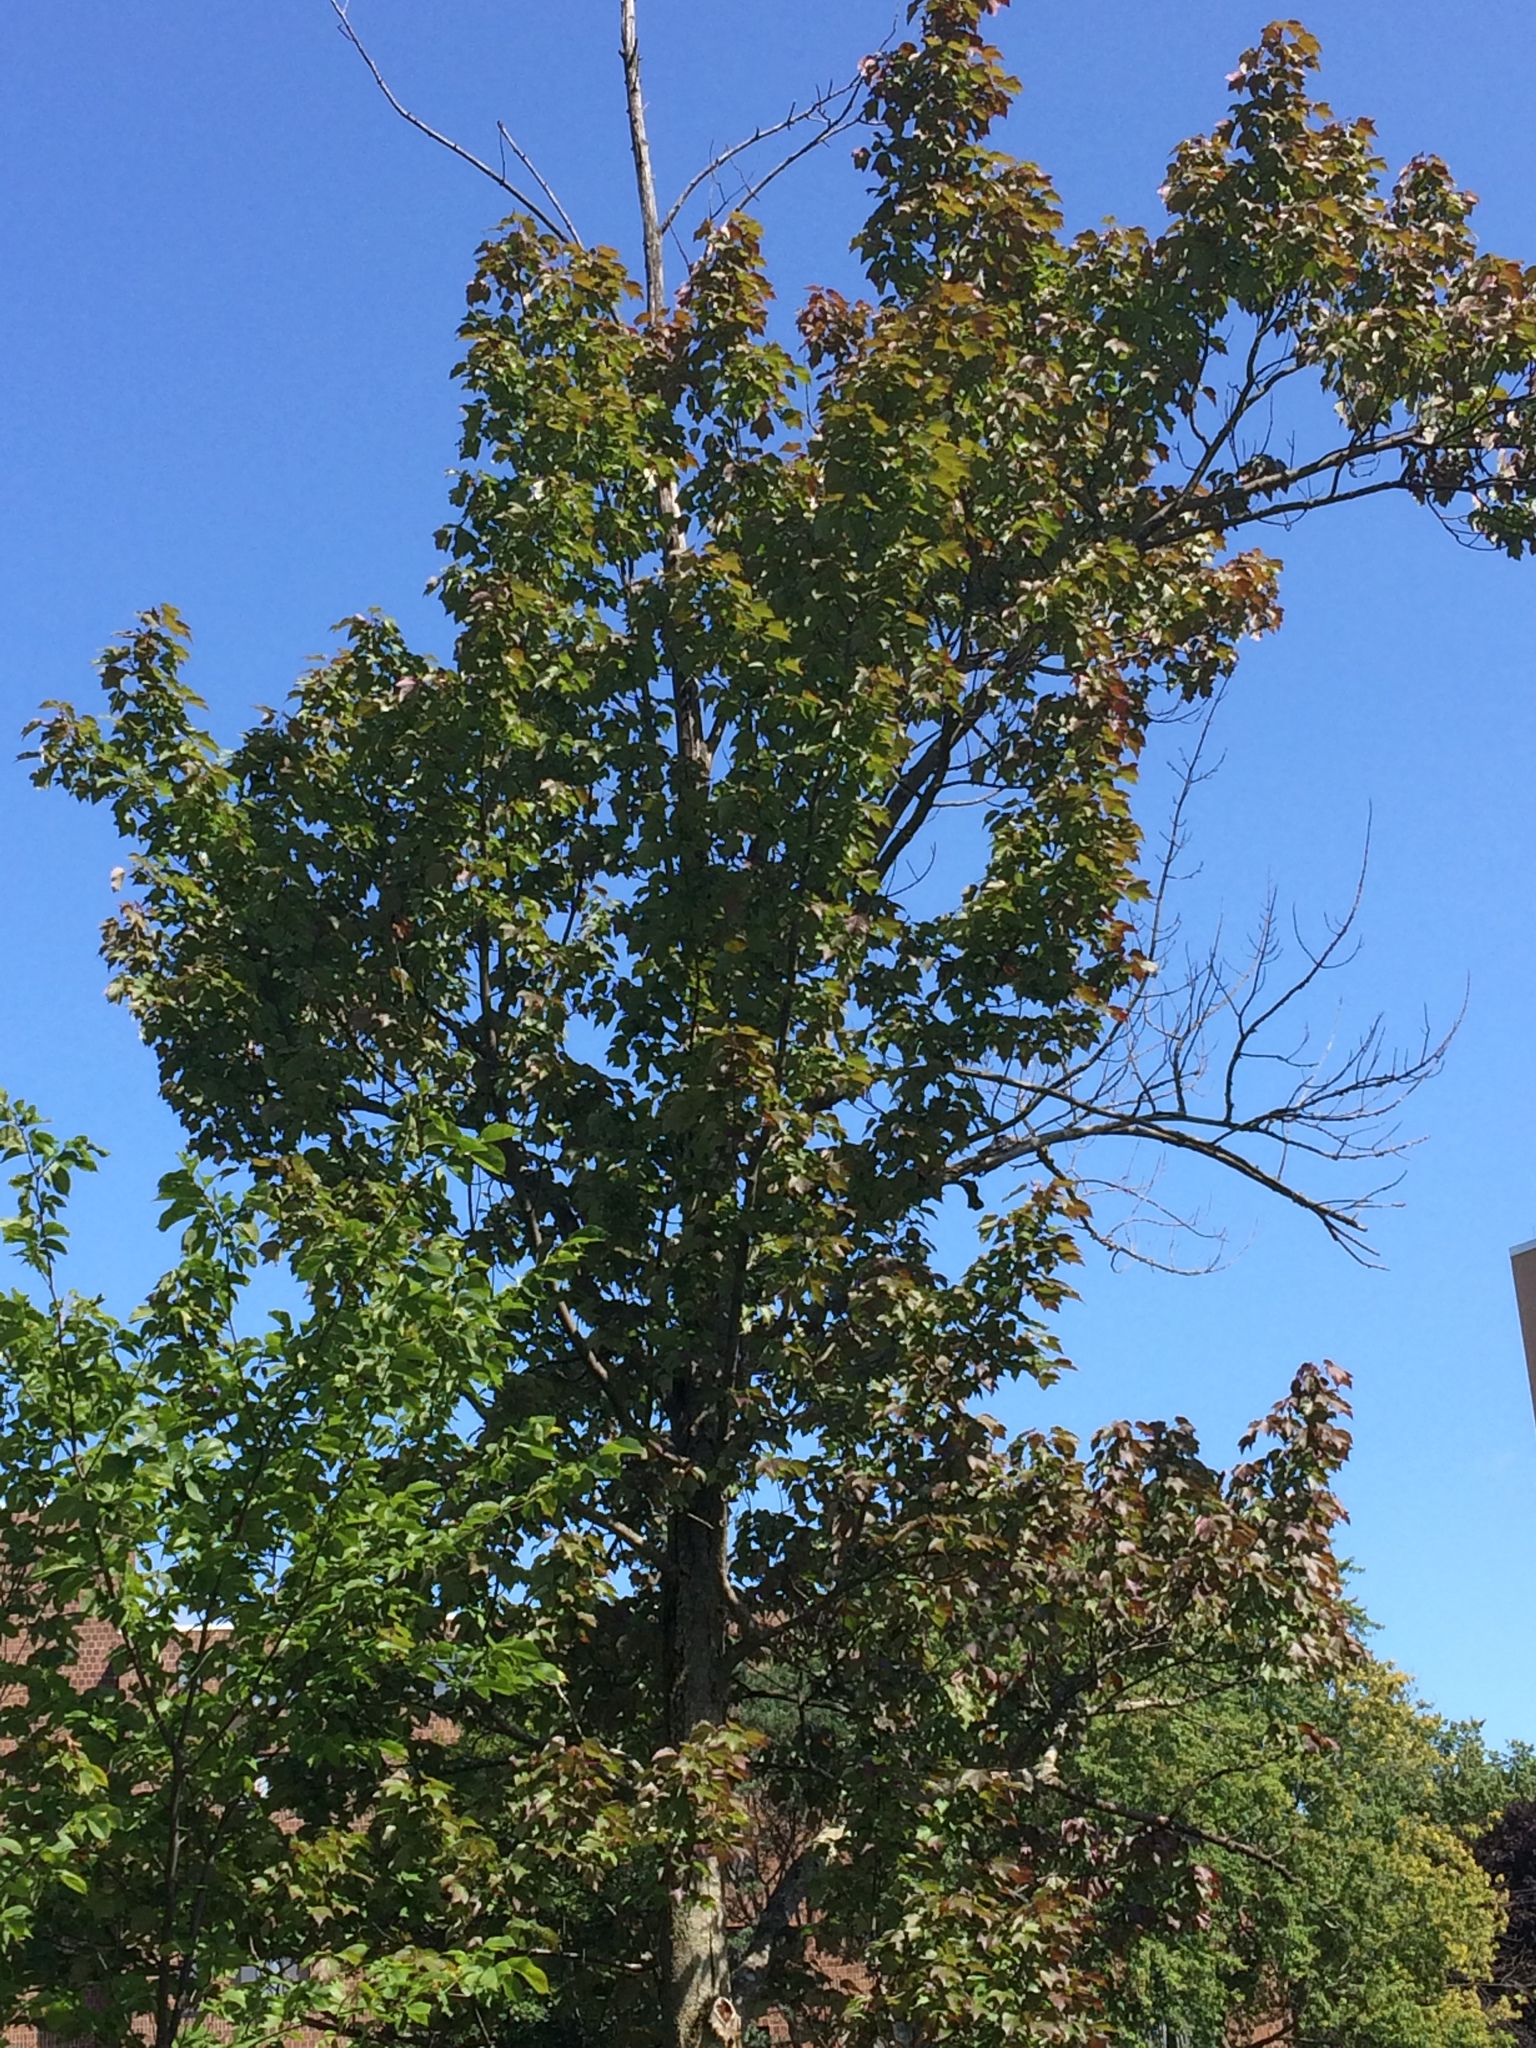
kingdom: Plantae
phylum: Tracheophyta
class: Magnoliopsida
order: Sapindales
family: Sapindaceae
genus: Acer
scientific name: Acer rubrum
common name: Red maple
